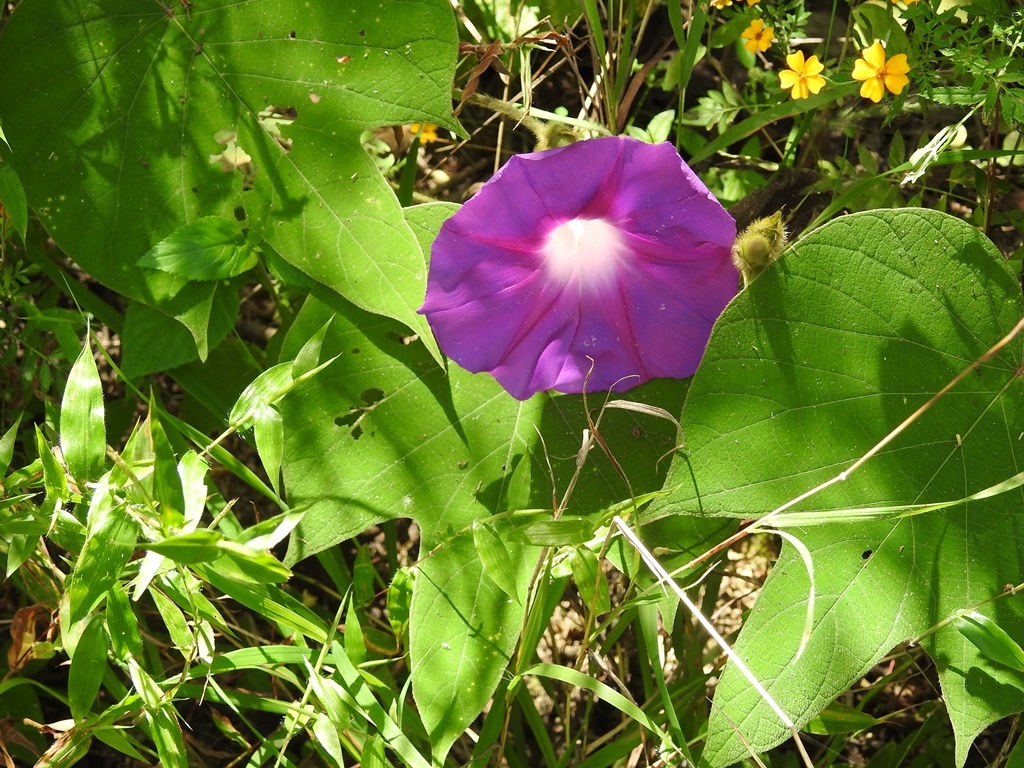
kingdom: Plantae
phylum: Tracheophyta
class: Magnoliopsida
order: Solanales
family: Convolvulaceae
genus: Ipomoea
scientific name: Ipomoea villifera
